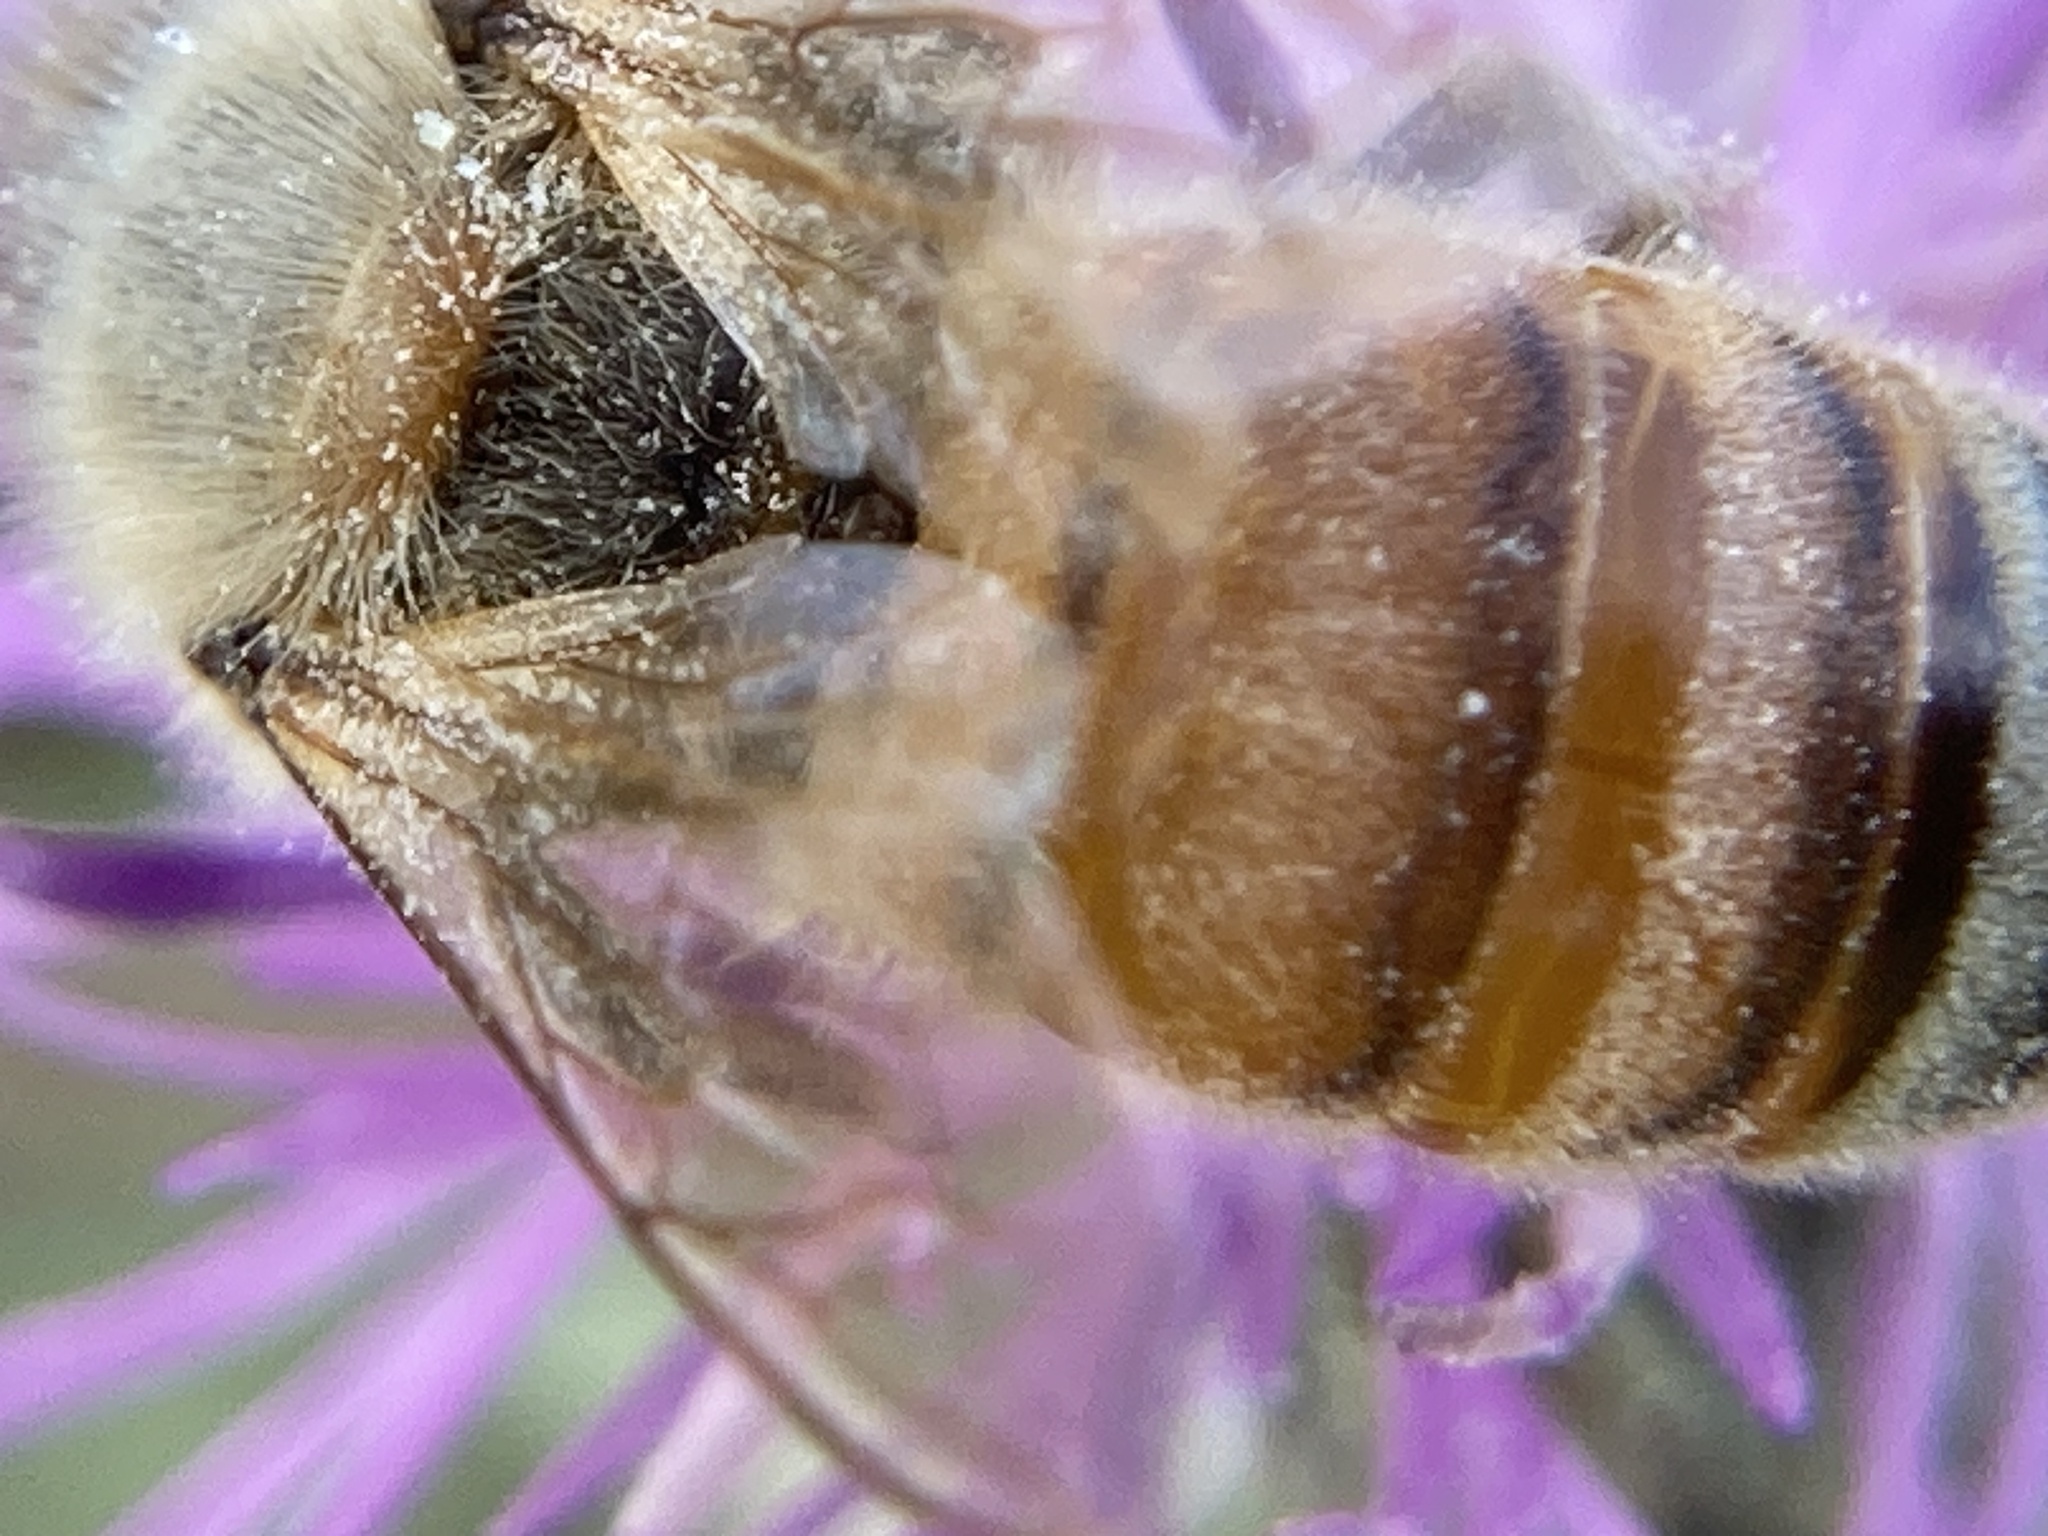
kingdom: Animalia
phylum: Arthropoda
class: Insecta
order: Hymenoptera
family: Apidae
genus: Apis
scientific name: Apis mellifera
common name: Honey bee
